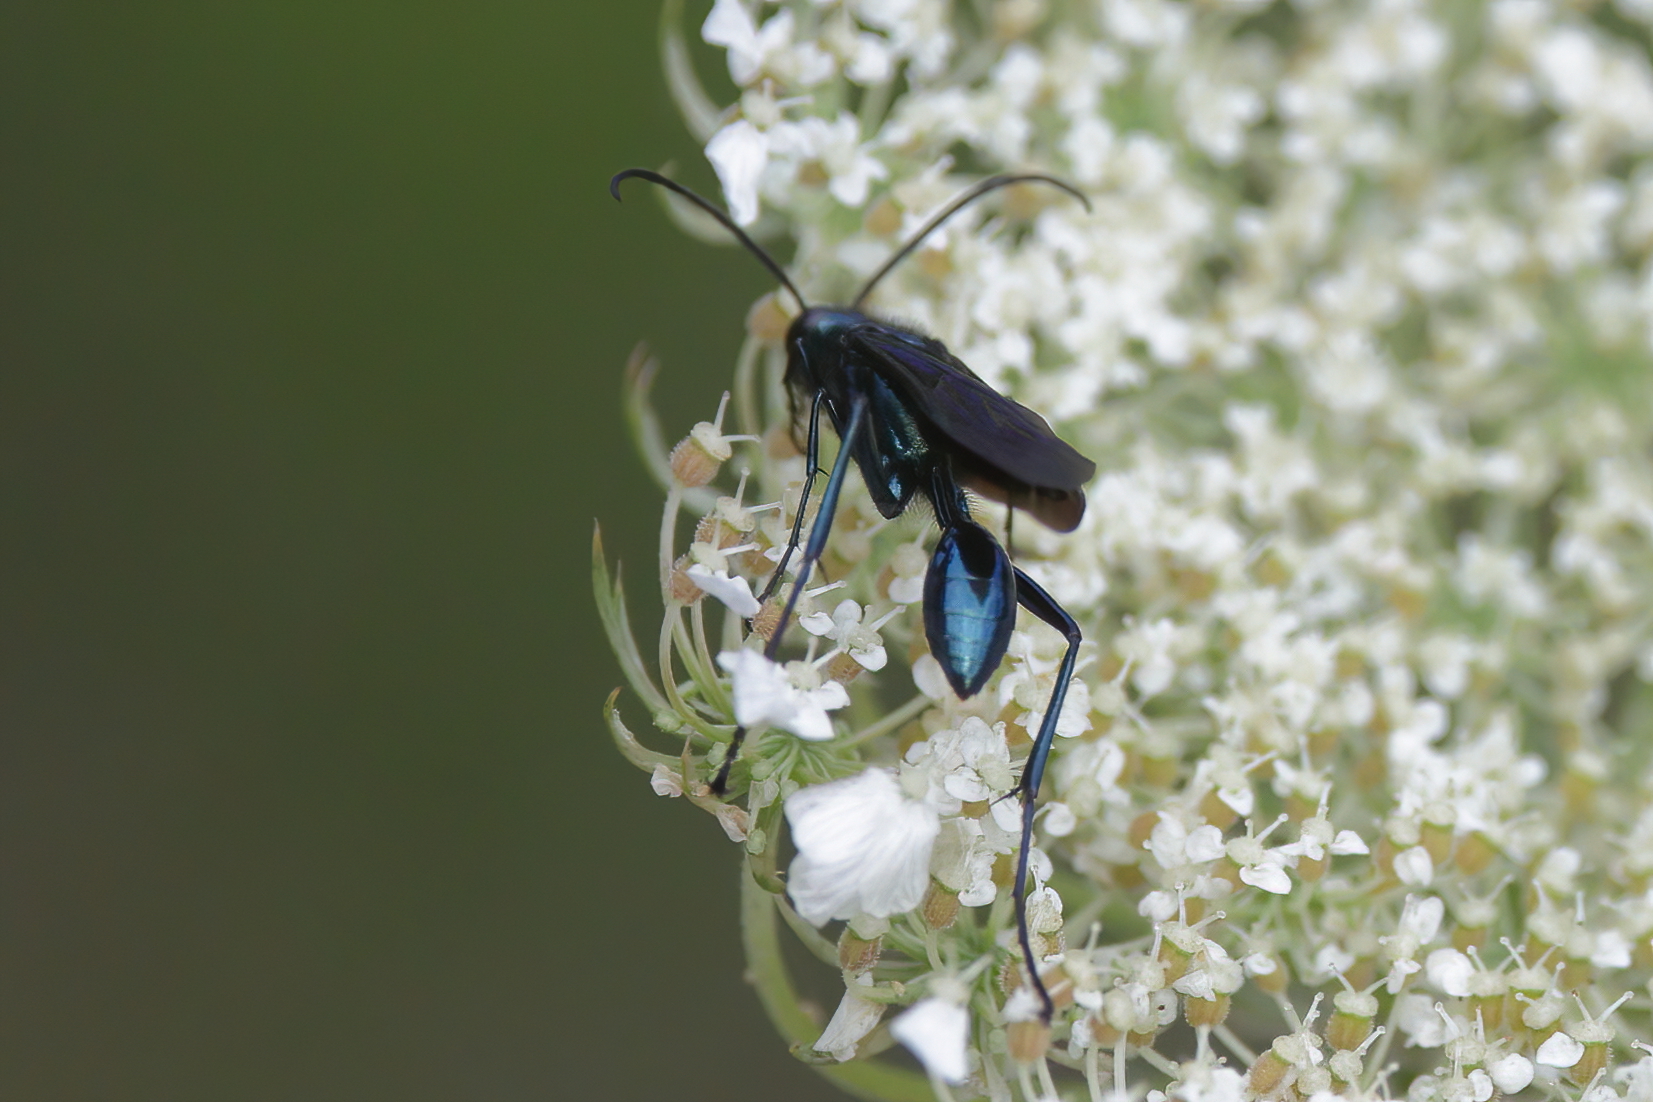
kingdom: Animalia
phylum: Arthropoda
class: Insecta
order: Hymenoptera
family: Sphecidae
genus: Chalybion
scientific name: Chalybion californicum
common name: Mud dauber
